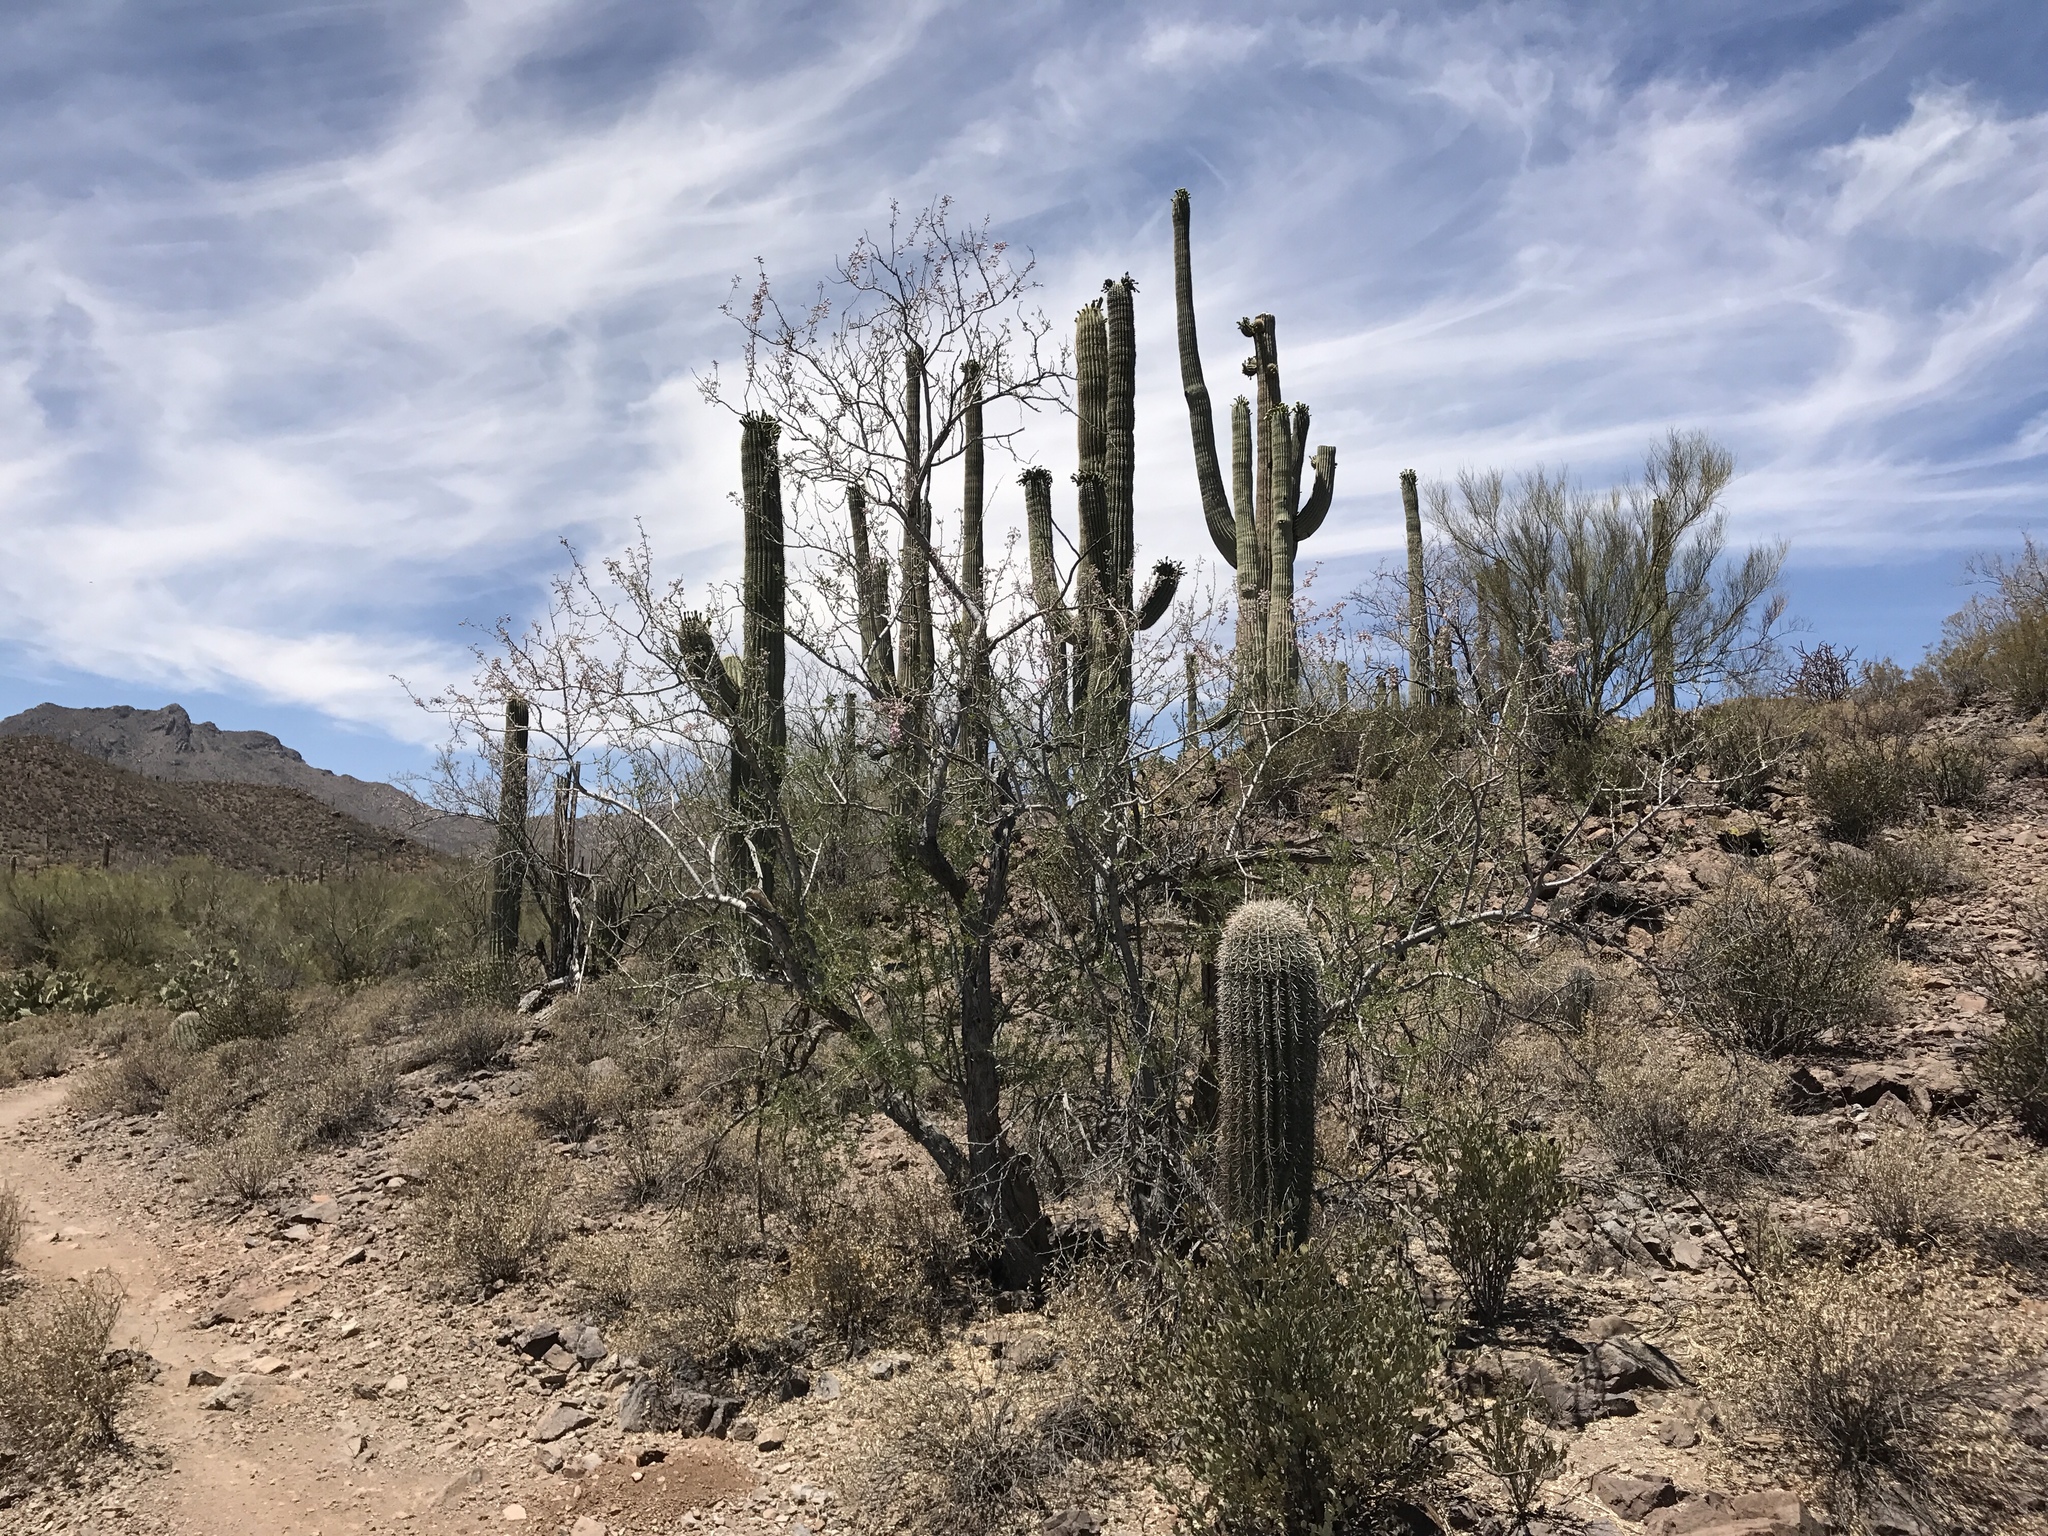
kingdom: Plantae
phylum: Tracheophyta
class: Magnoliopsida
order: Caryophyllales
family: Cactaceae
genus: Carnegiea
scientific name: Carnegiea gigantea
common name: Saguaro
